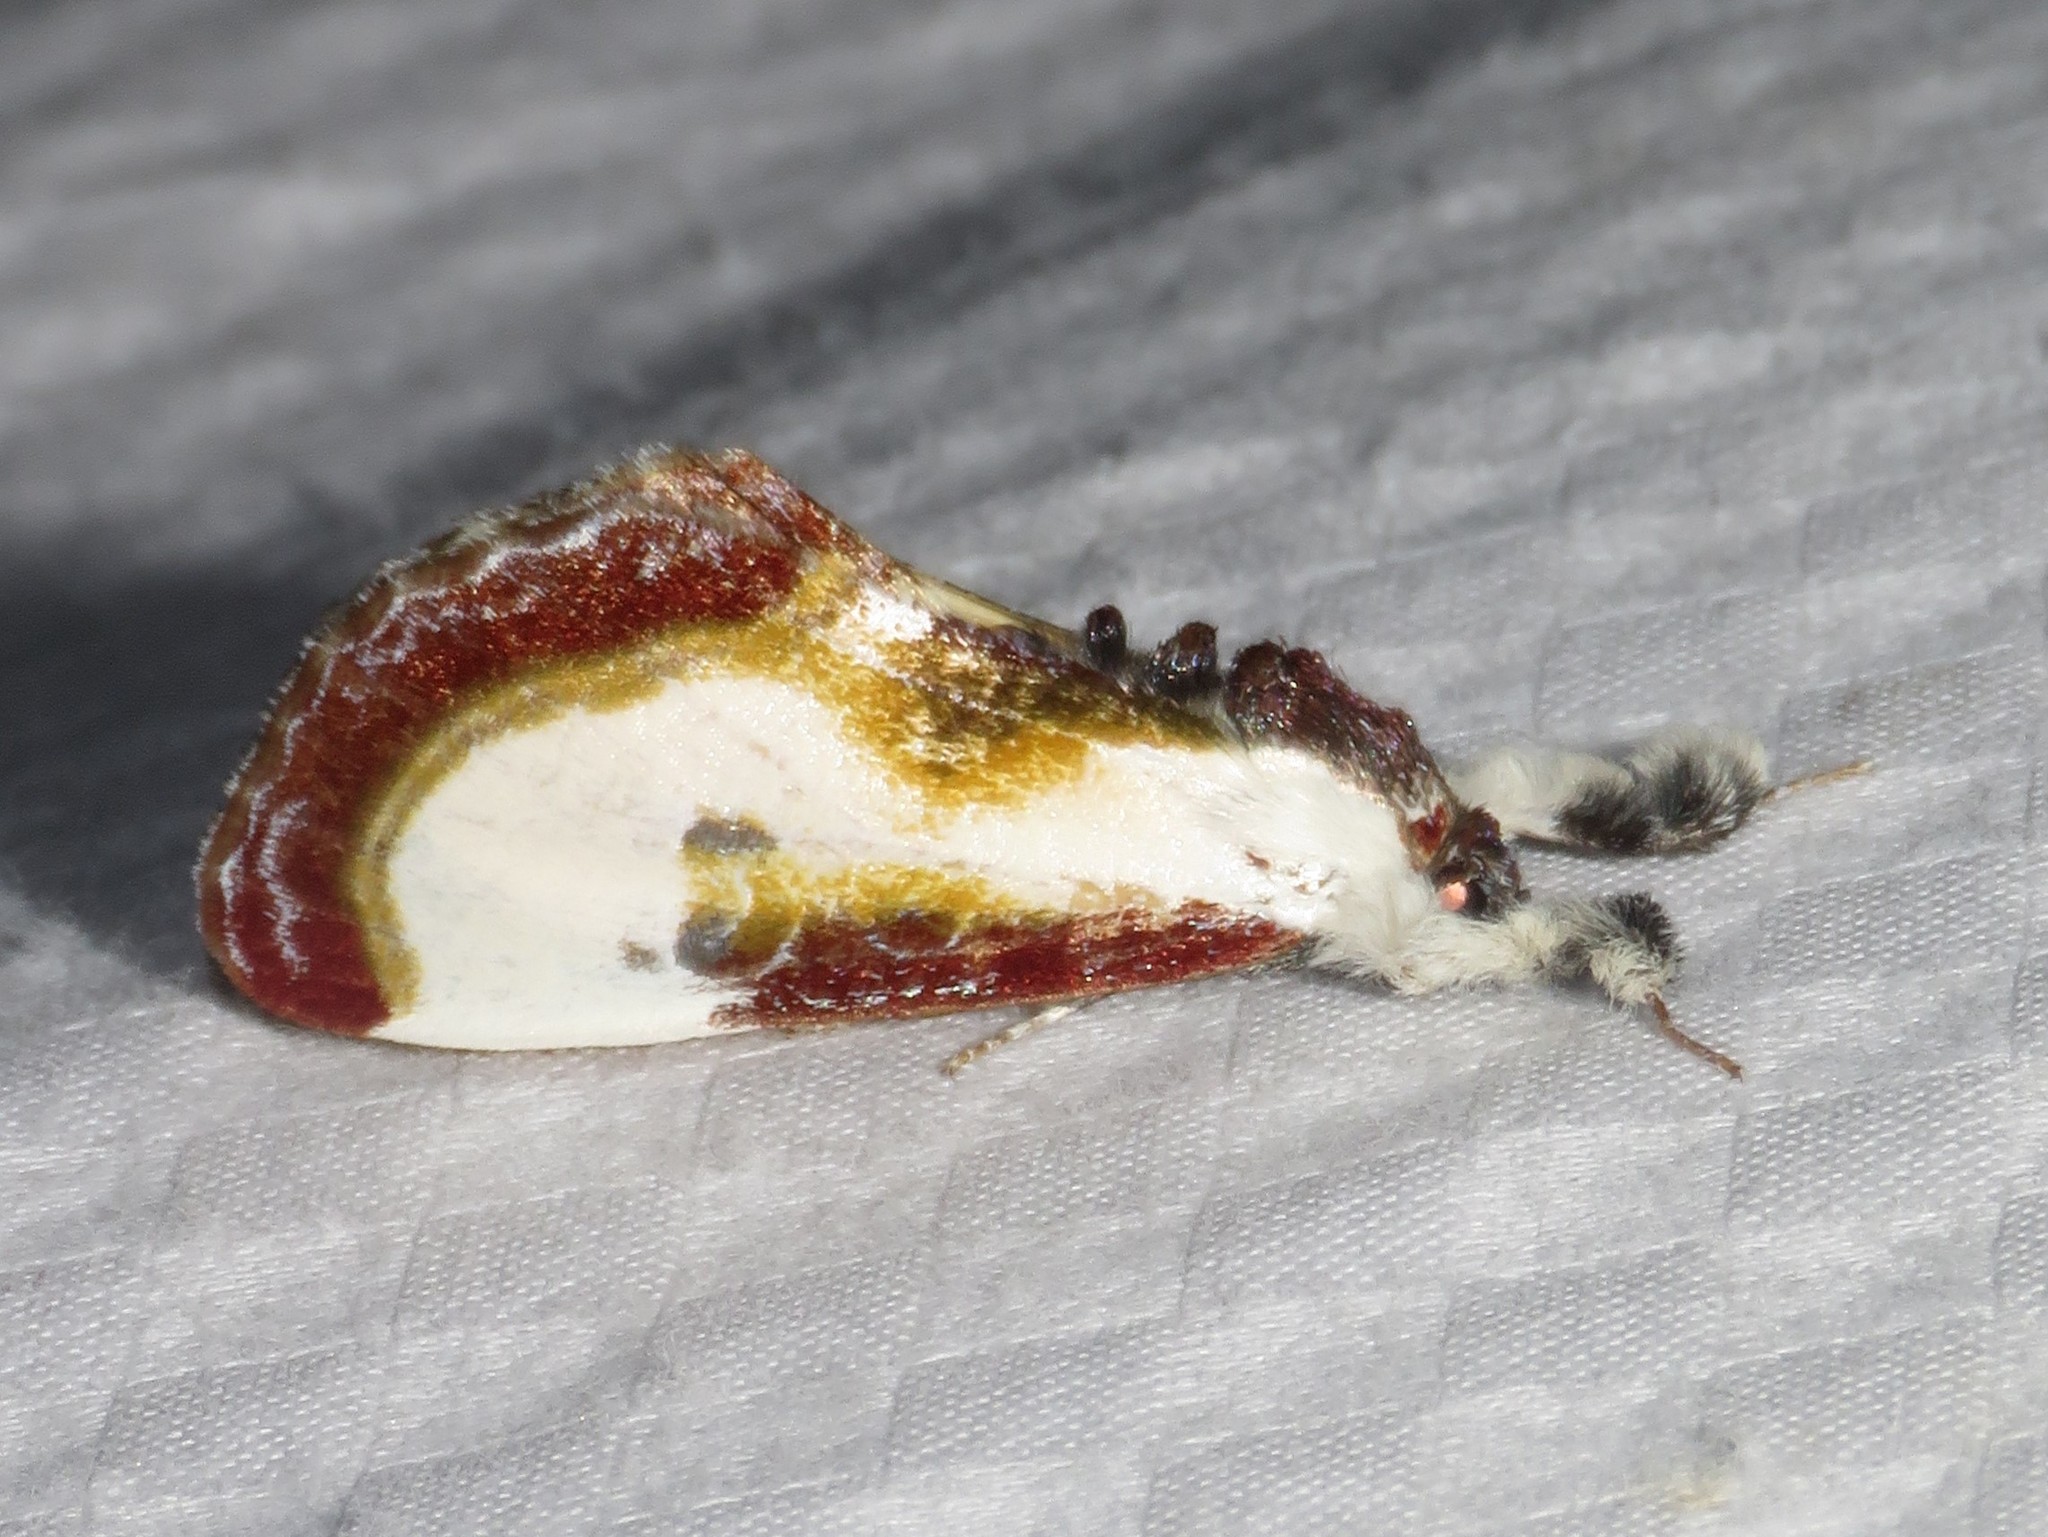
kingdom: Animalia
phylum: Arthropoda
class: Insecta
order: Lepidoptera
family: Noctuidae
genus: Eudryas
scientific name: Eudryas grata
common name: Beautiful wood-nymph
